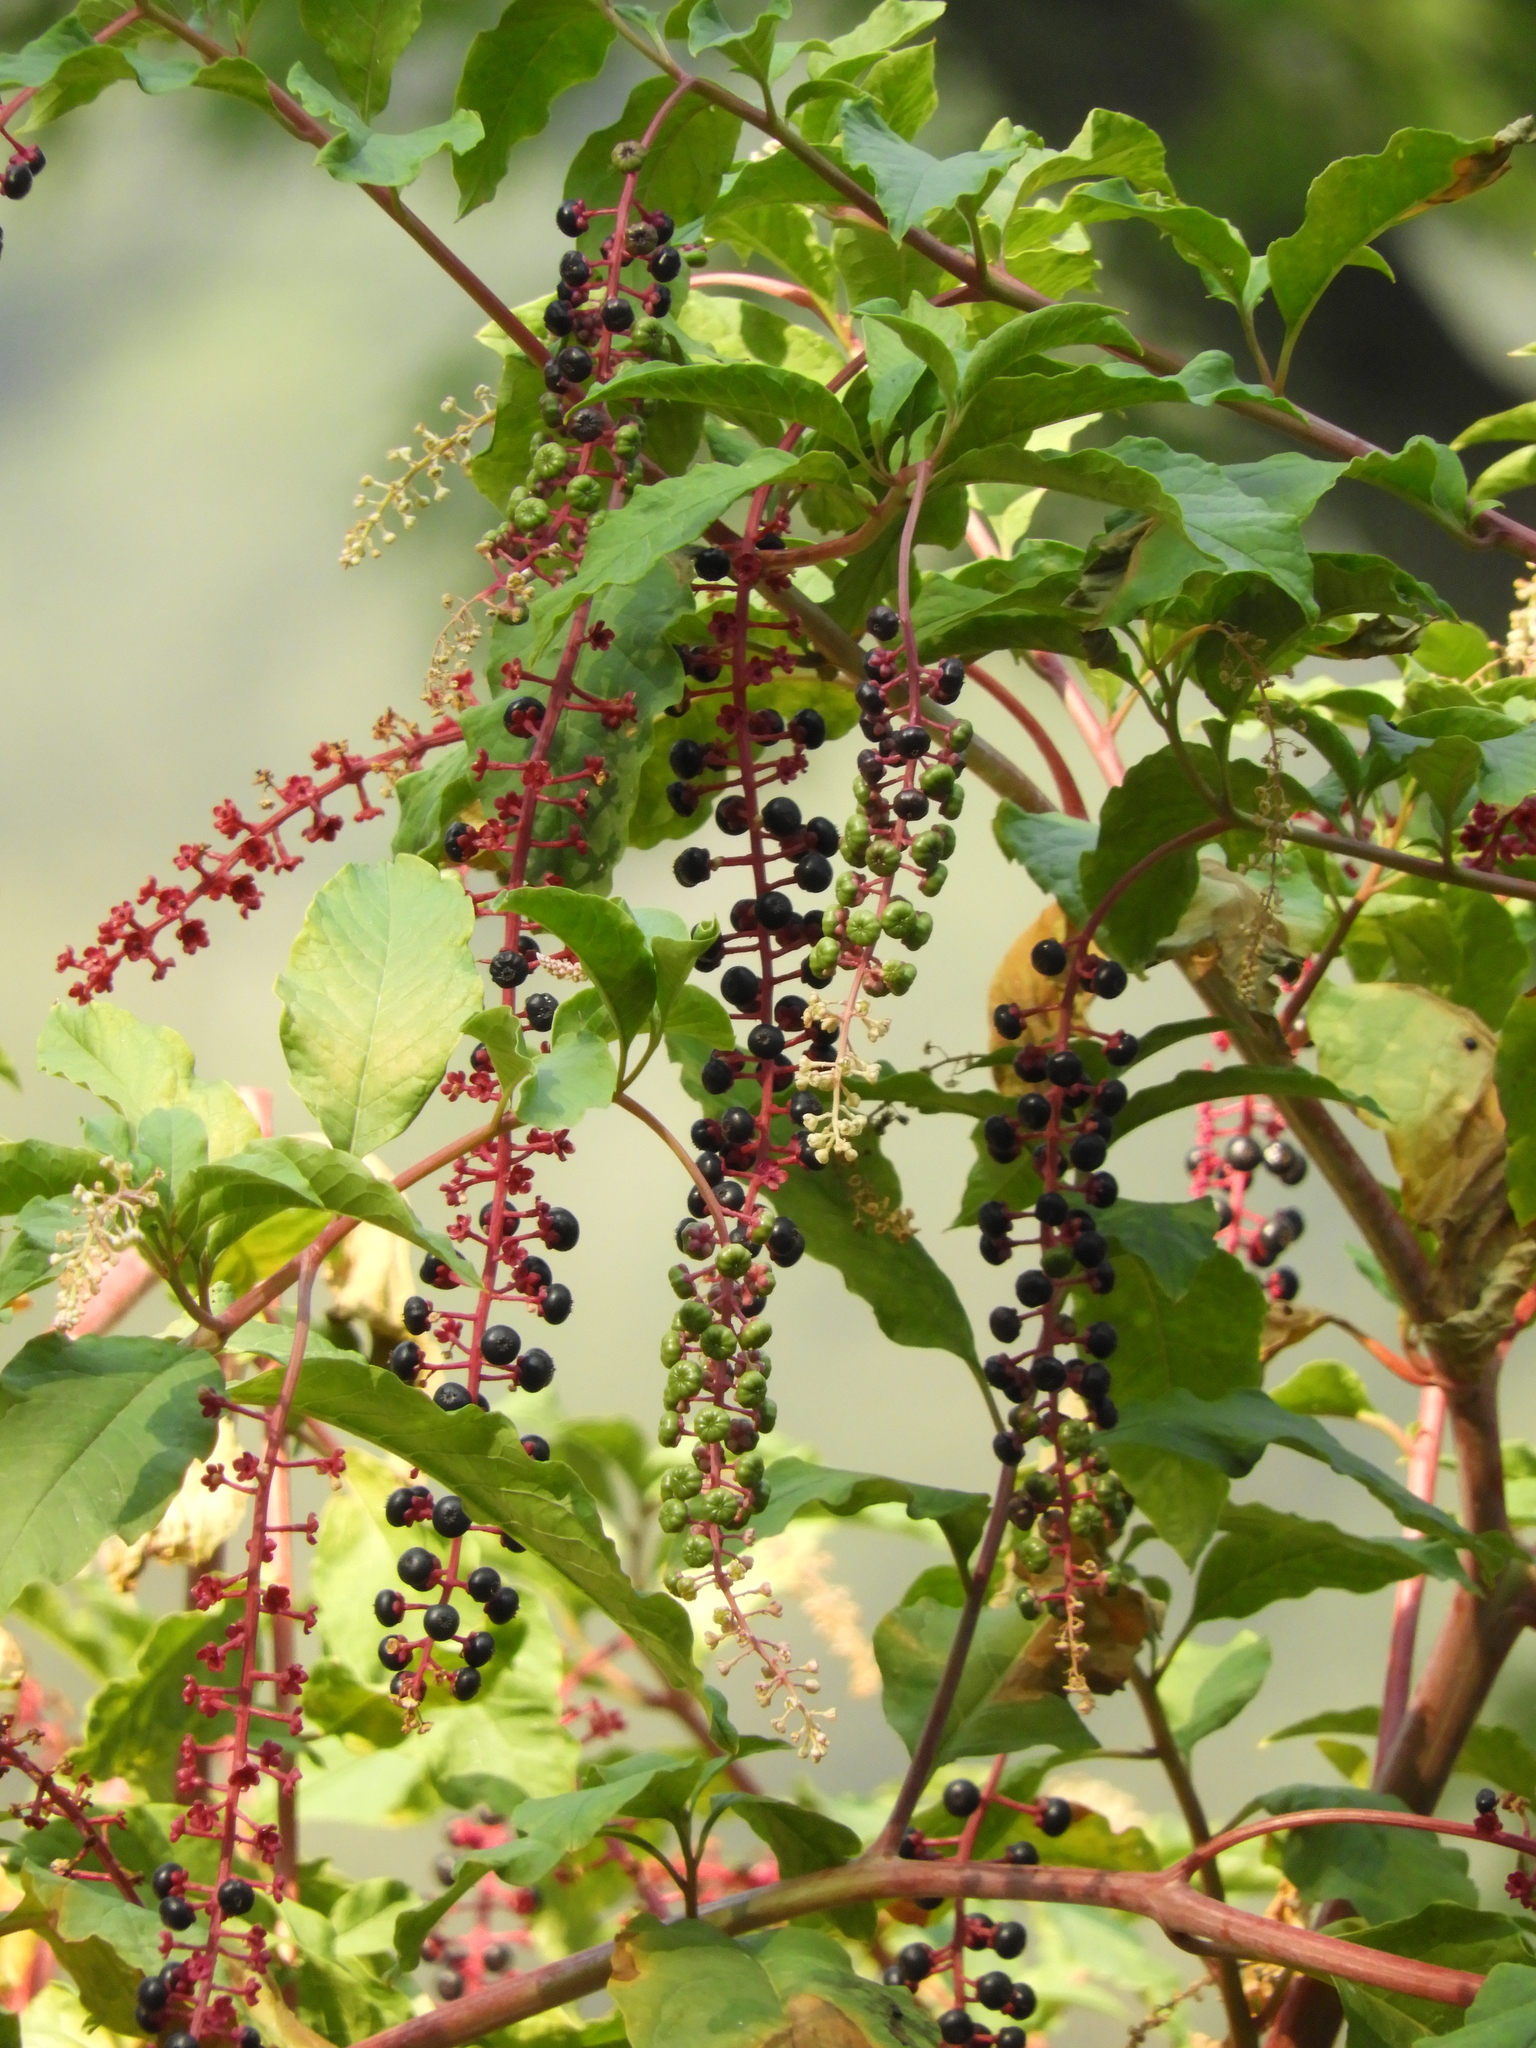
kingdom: Plantae
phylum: Tracheophyta
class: Magnoliopsida
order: Caryophyllales
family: Phytolaccaceae
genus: Phytolacca
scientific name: Phytolacca americana
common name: American pokeweed
